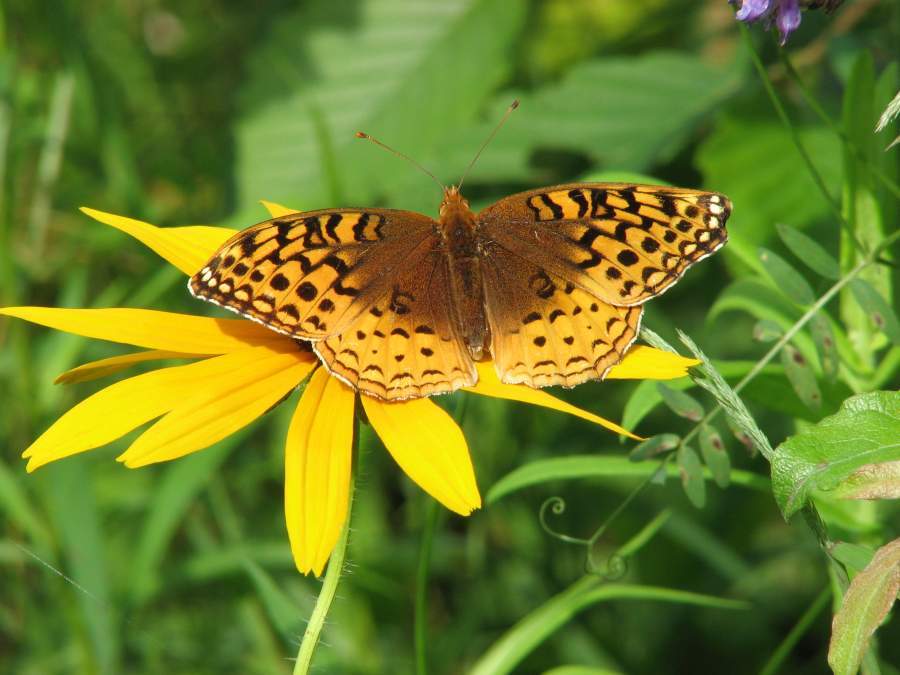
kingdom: Animalia
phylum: Arthropoda
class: Insecta
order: Lepidoptera
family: Nymphalidae
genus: Speyeria
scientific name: Speyeria cybele
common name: Great spangled fritillary
